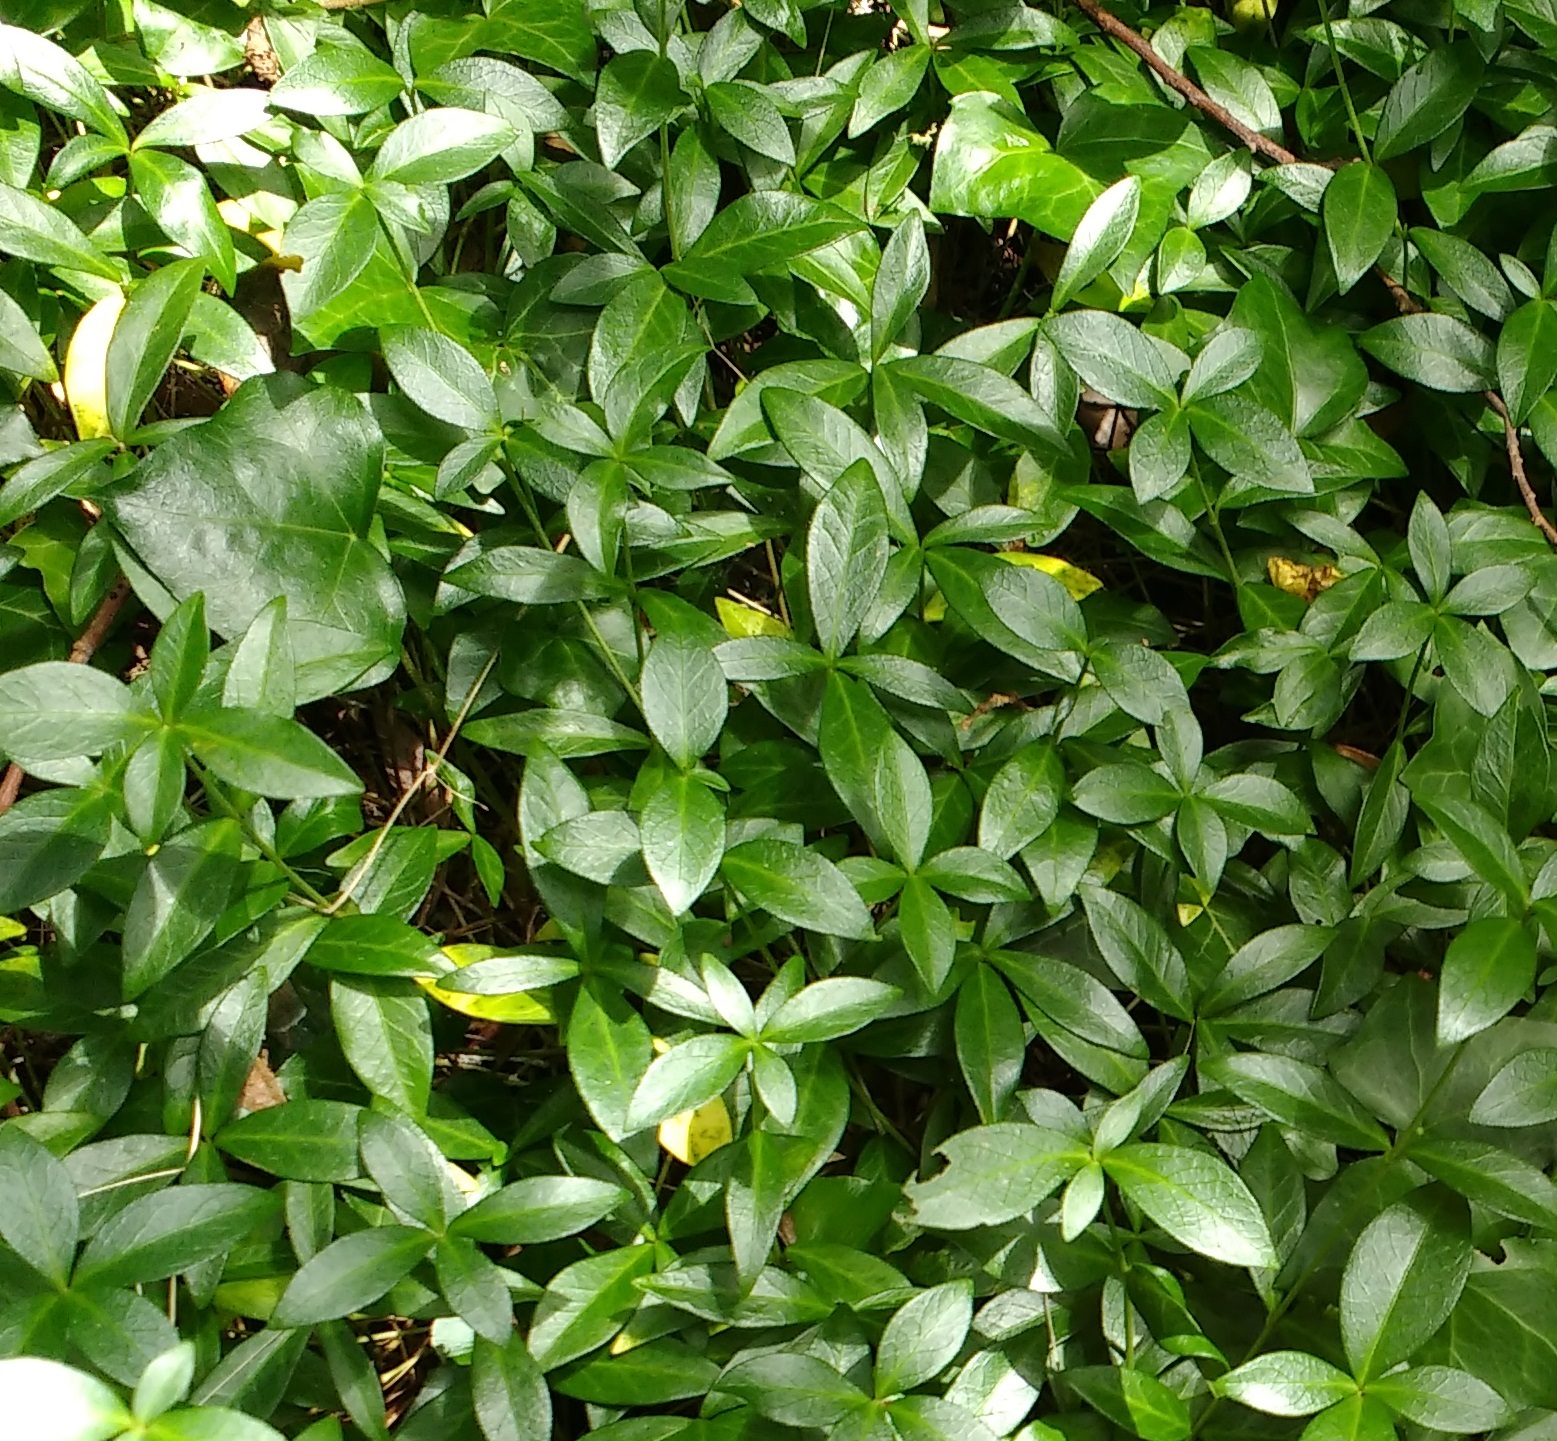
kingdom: Plantae
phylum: Tracheophyta
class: Magnoliopsida
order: Gentianales
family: Apocynaceae
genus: Vinca
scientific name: Vinca minor
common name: Lesser periwinkle
